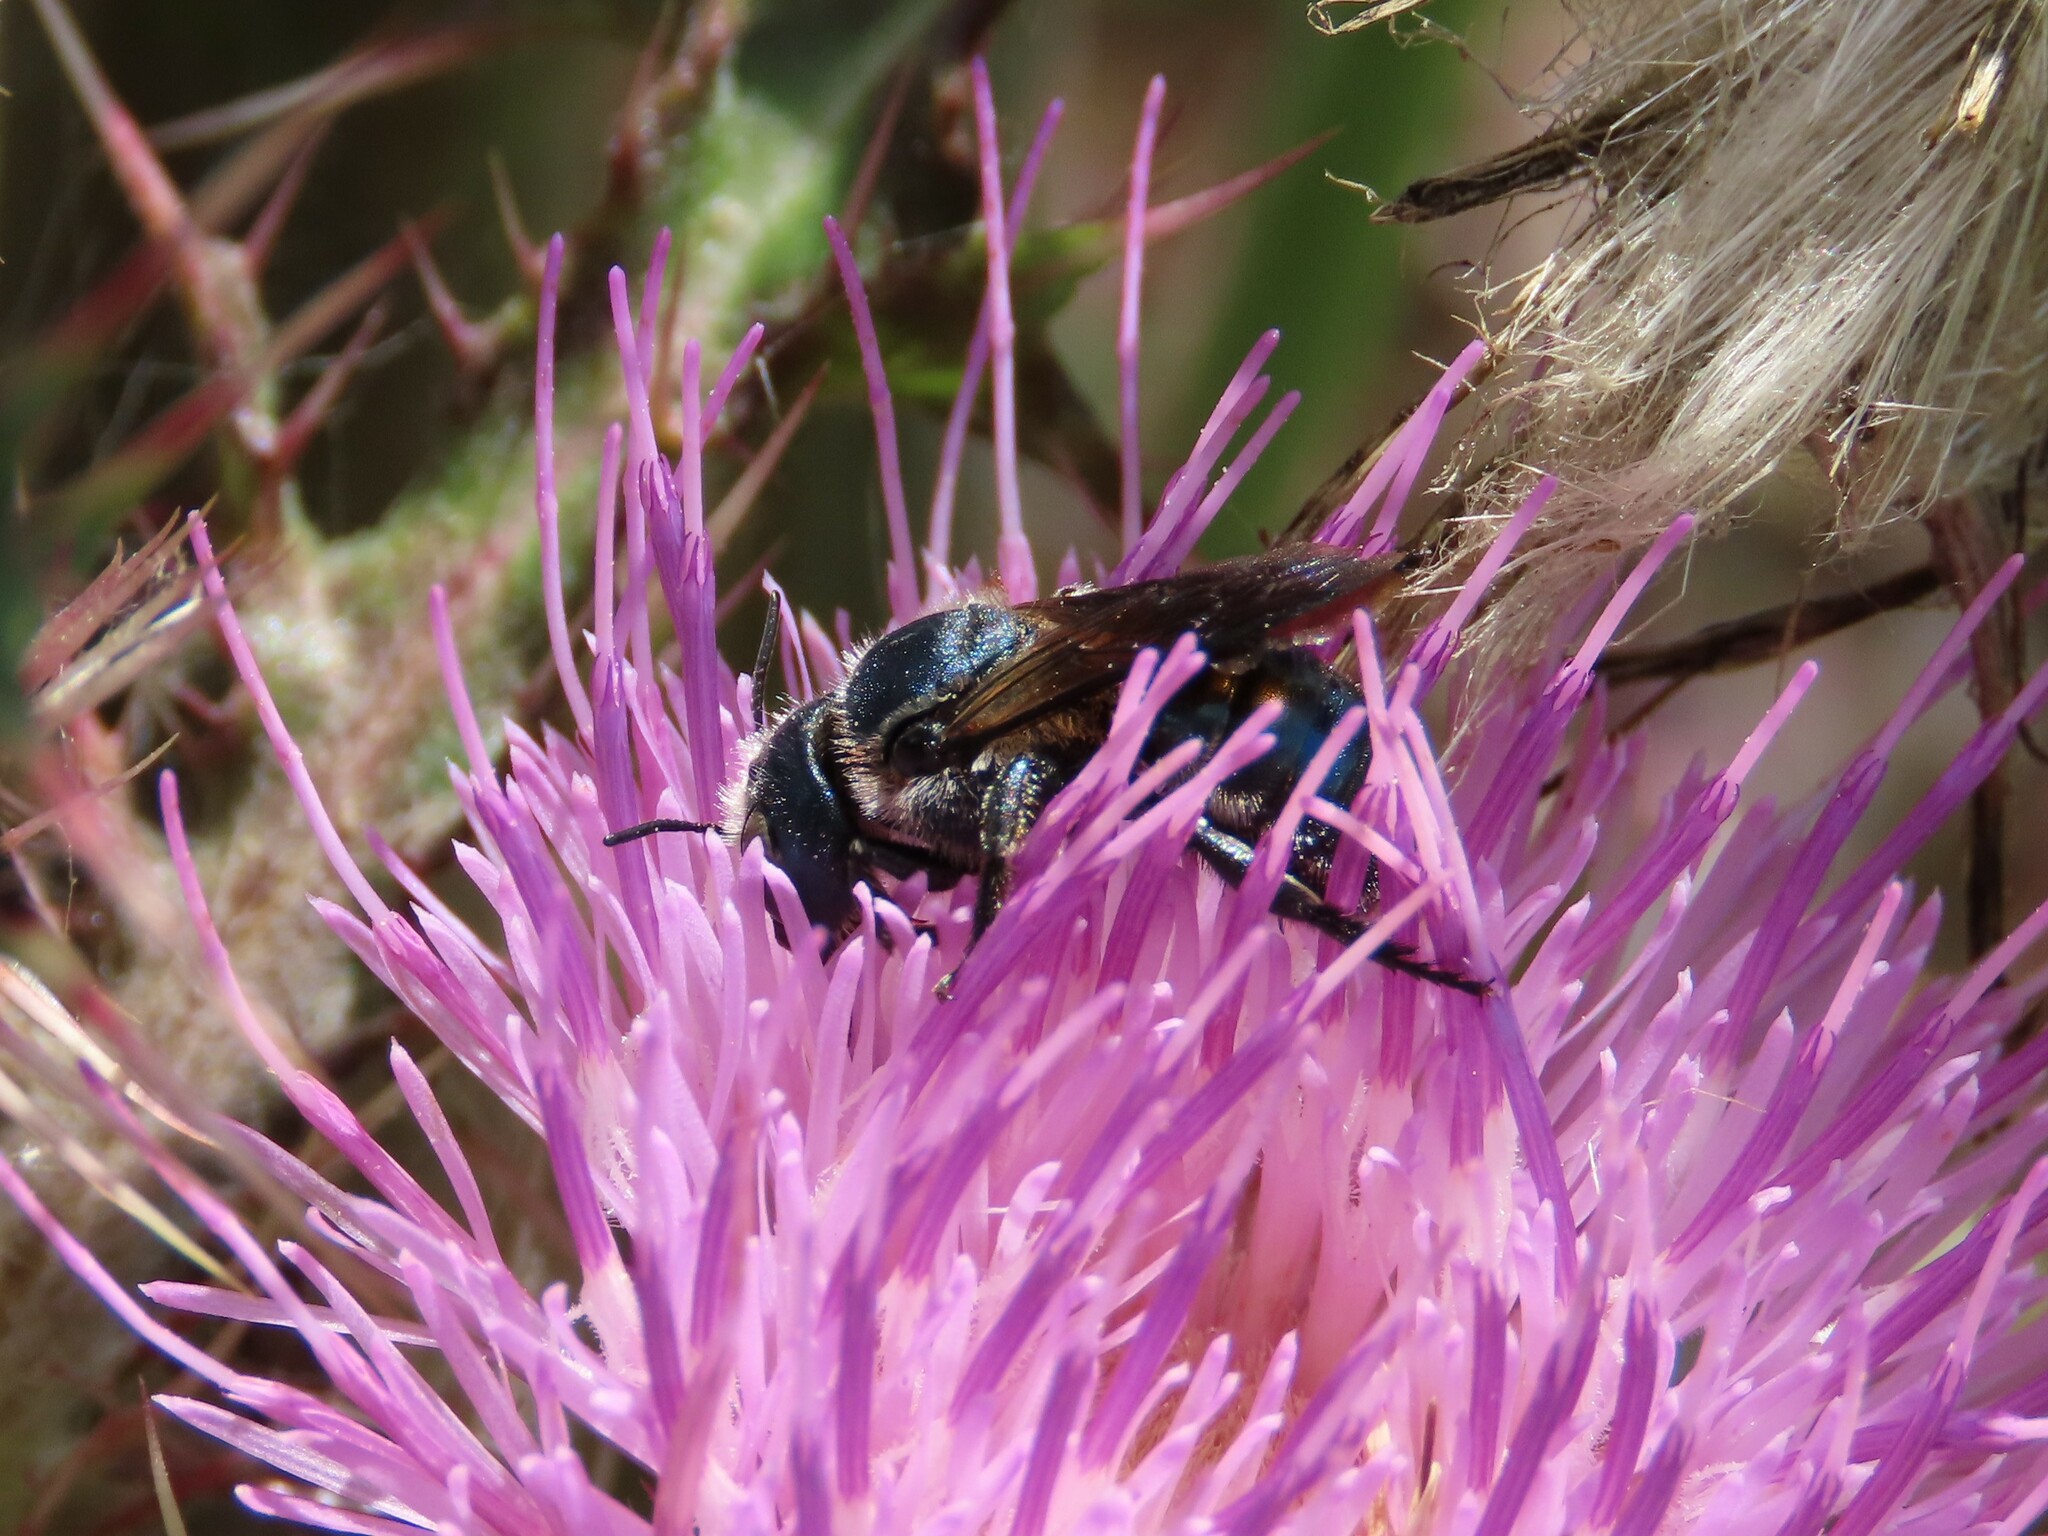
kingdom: Animalia
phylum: Arthropoda
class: Insecta
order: Hymenoptera
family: Megachilidae
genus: Osmia
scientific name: Osmia chalybea
